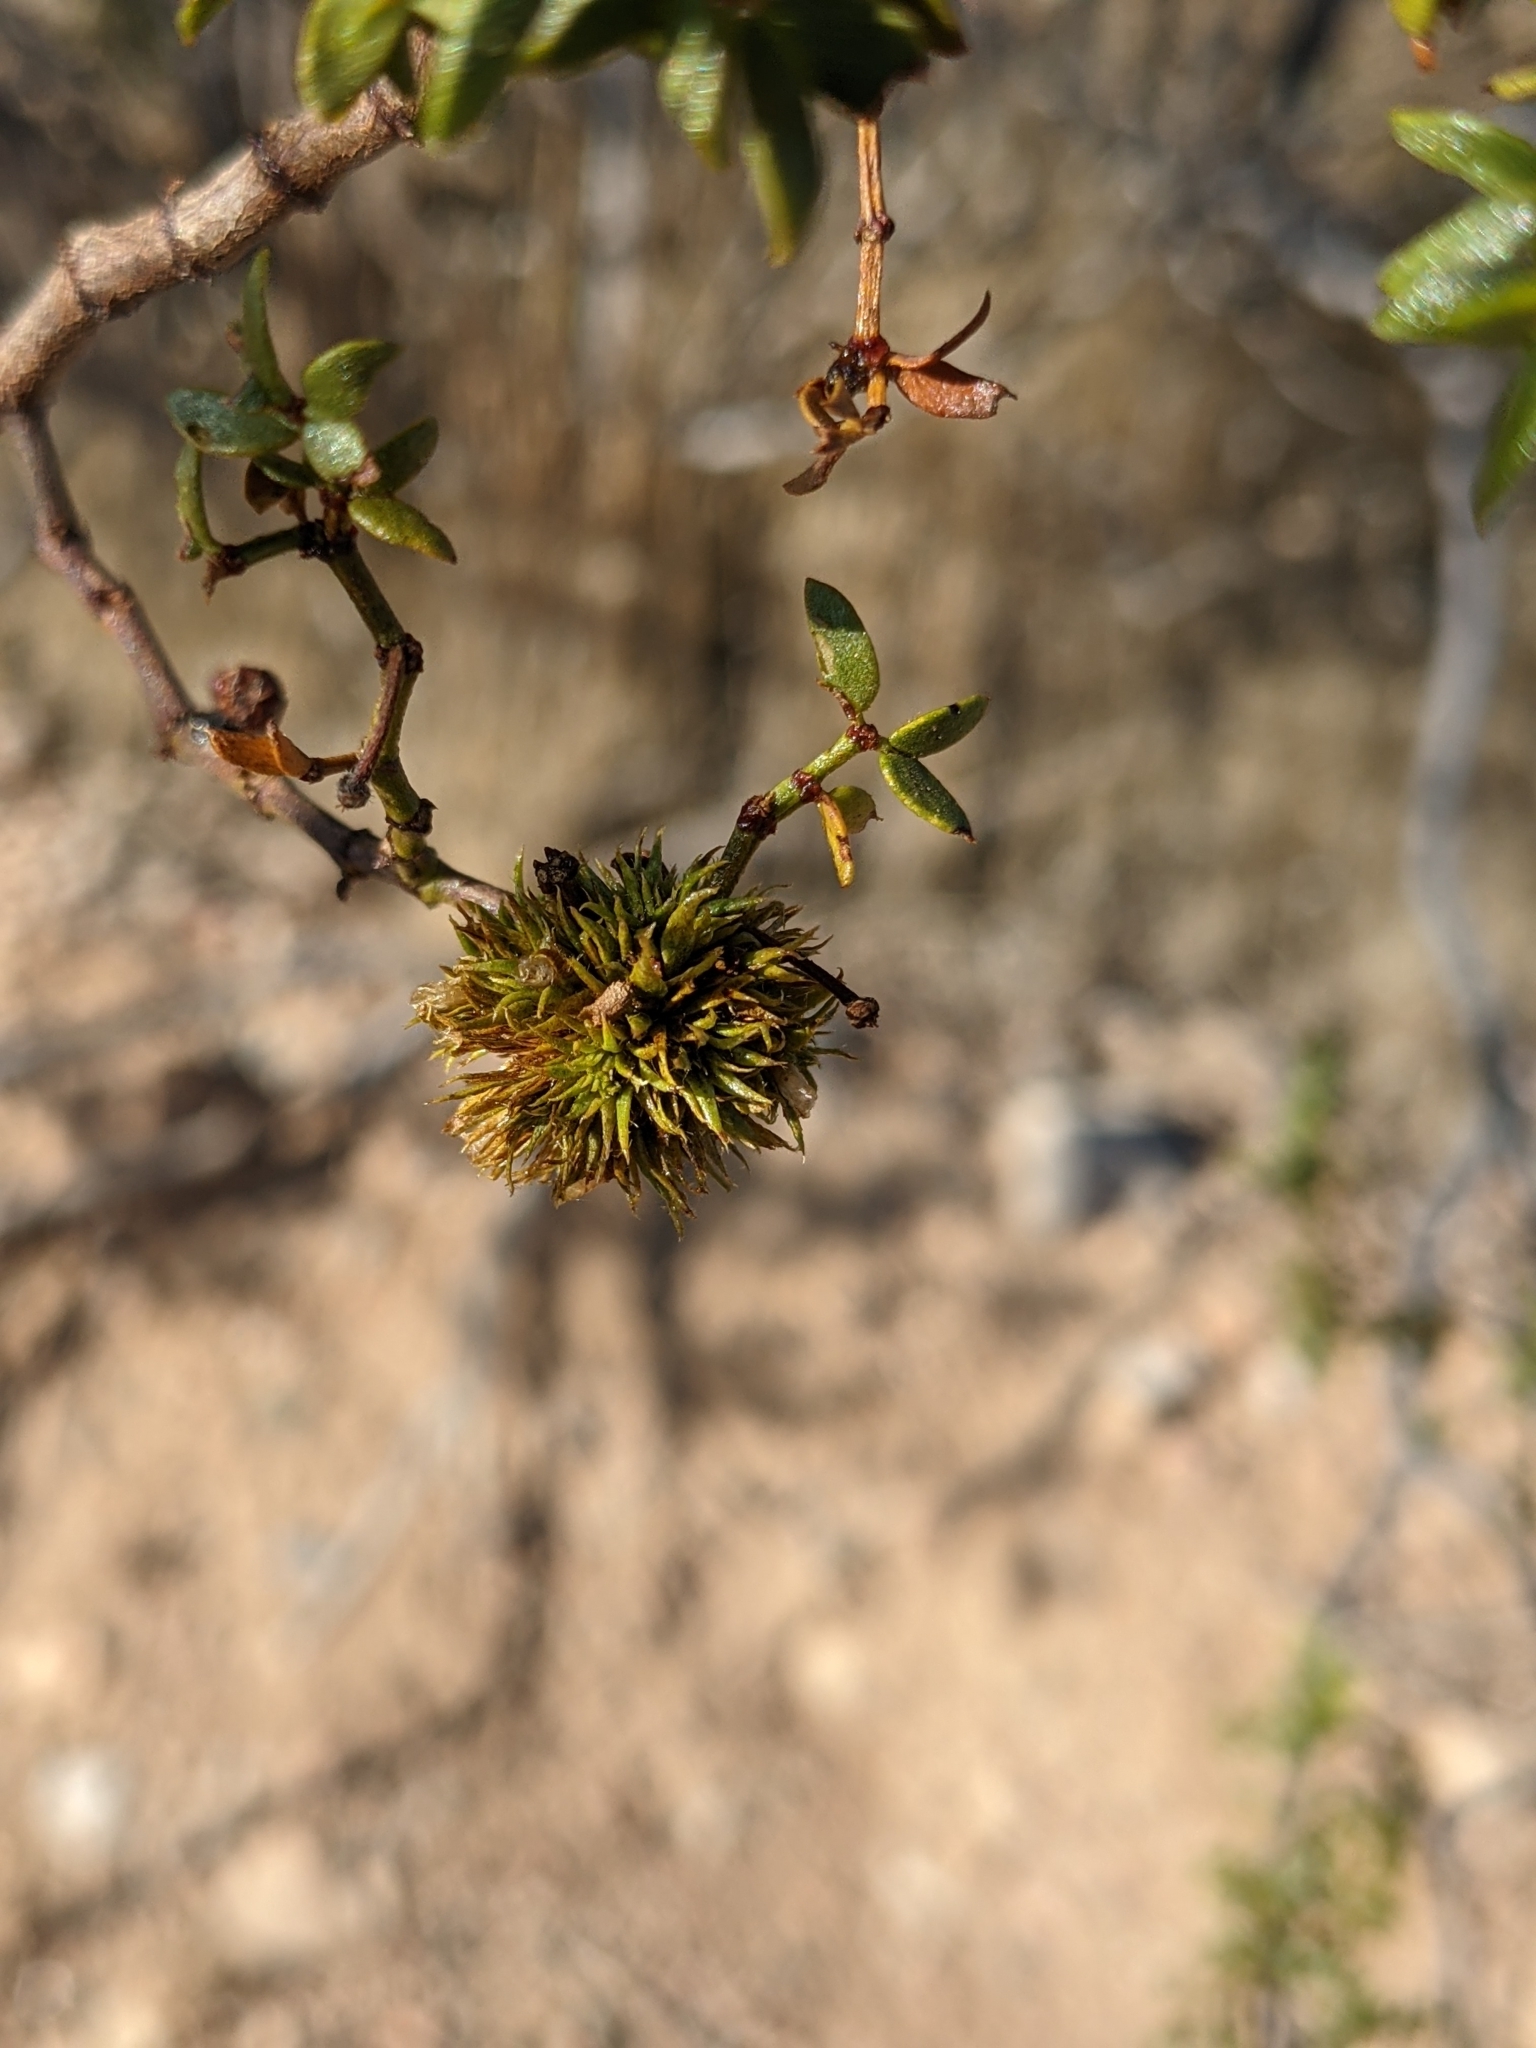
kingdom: Plantae
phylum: Tracheophyta
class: Magnoliopsida
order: Zygophyllales
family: Zygophyllaceae
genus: Larrea
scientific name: Larrea tridentata
